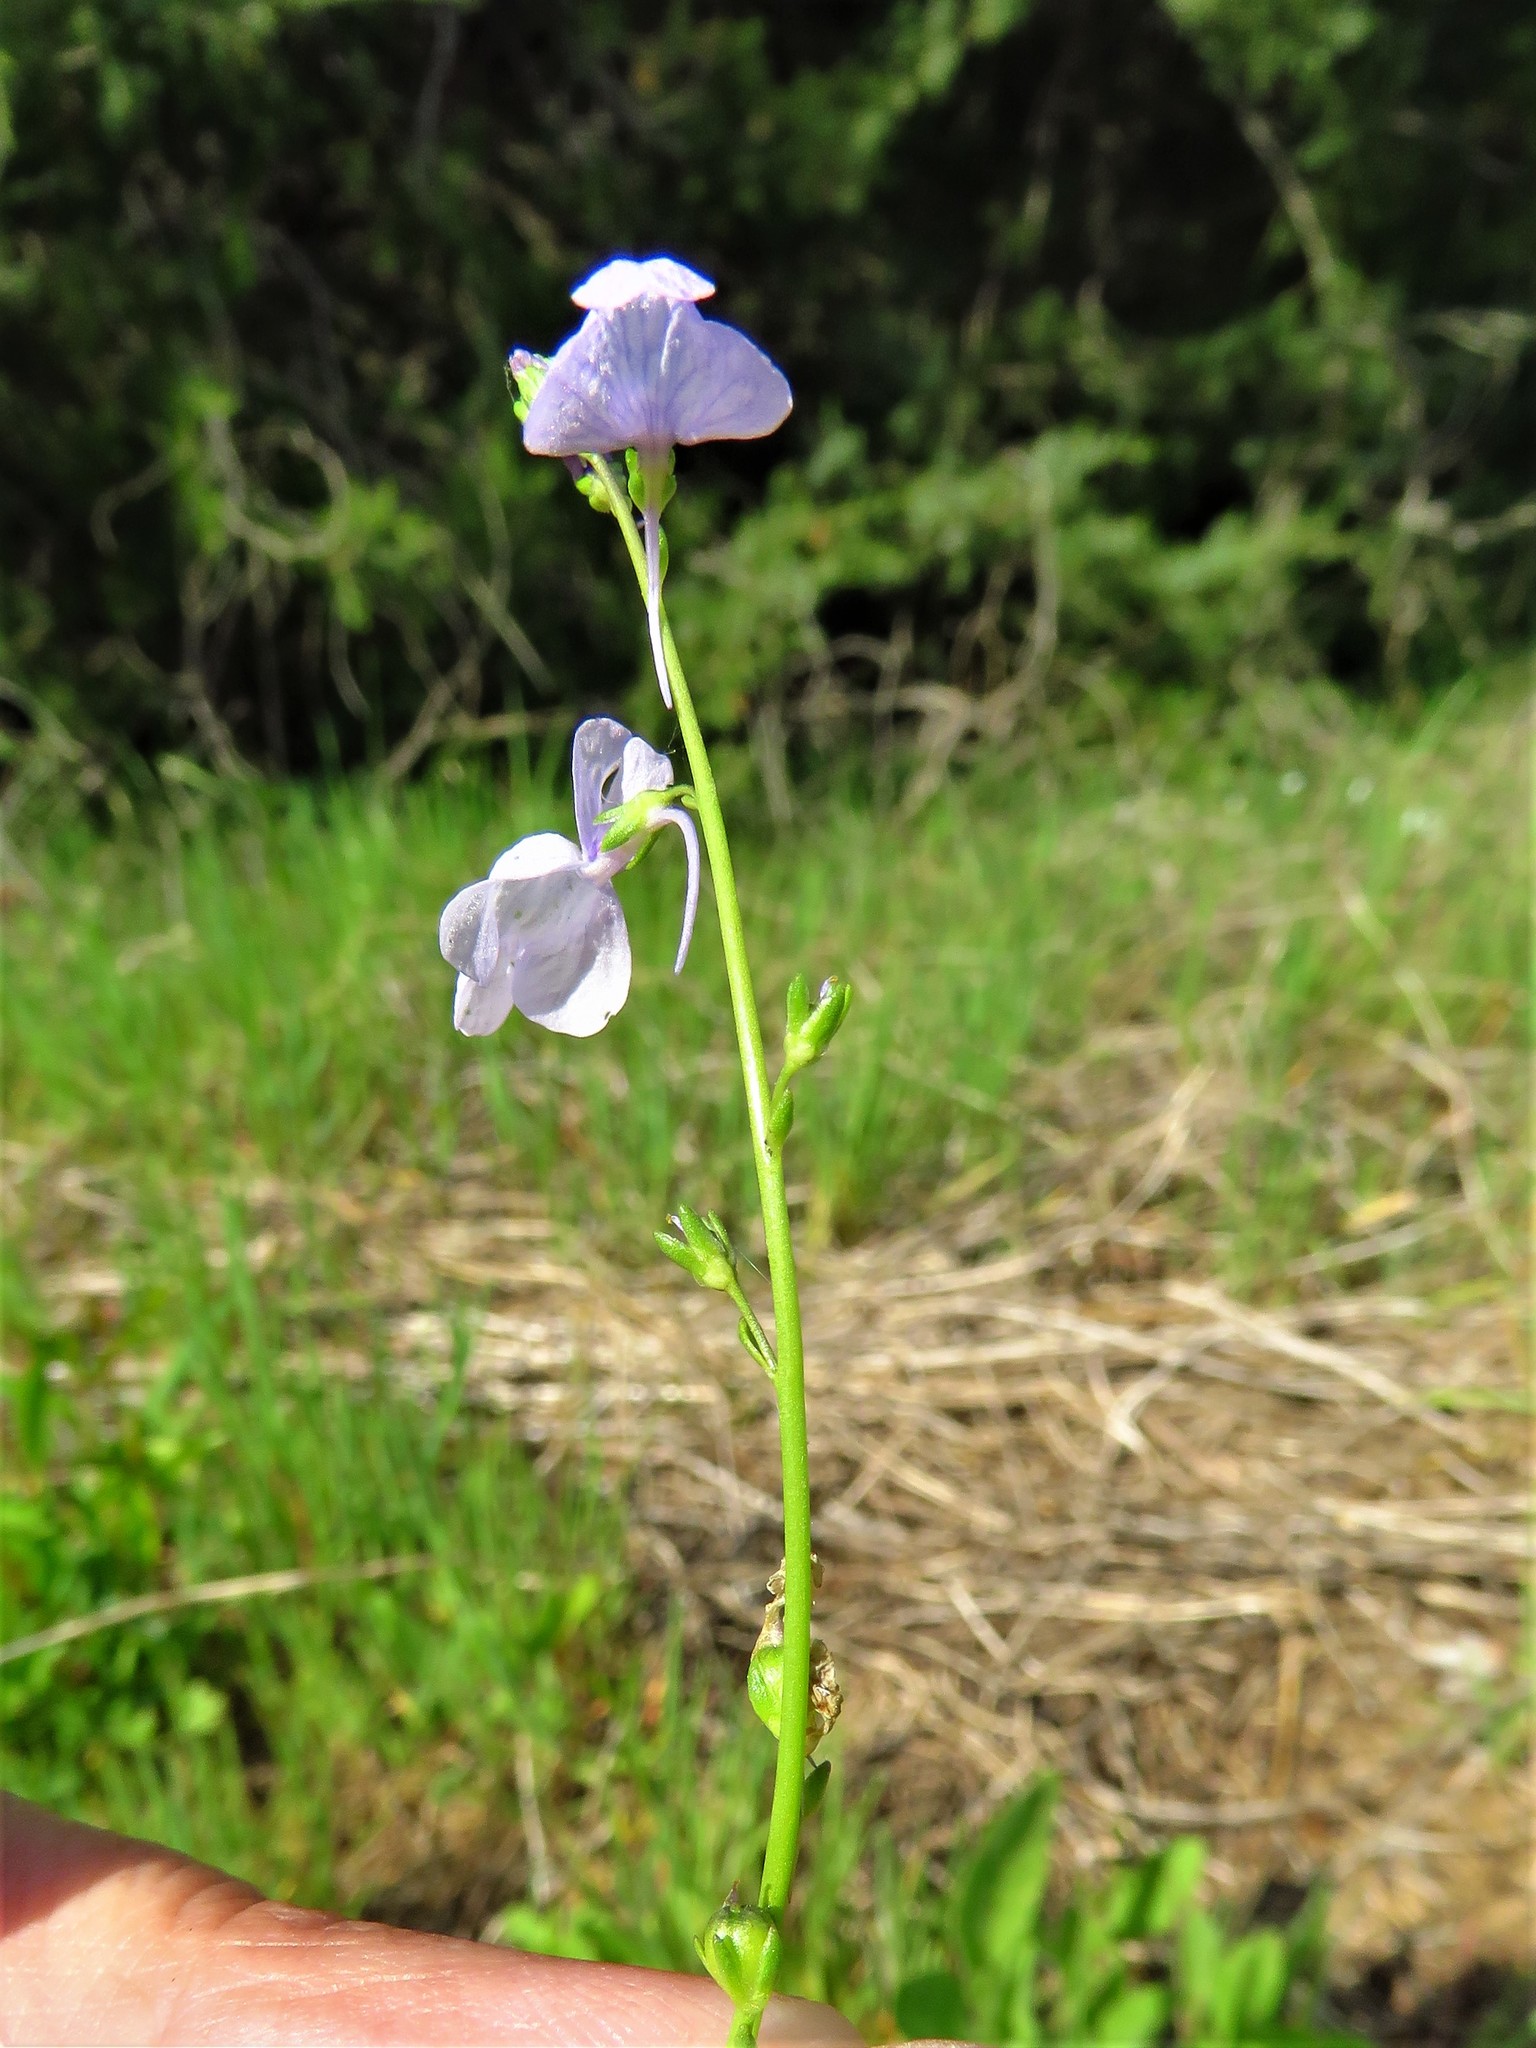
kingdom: Plantae
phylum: Tracheophyta
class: Magnoliopsida
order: Lamiales
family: Plantaginaceae
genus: Nuttallanthus
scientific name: Nuttallanthus texanus
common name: Texas toadflax
